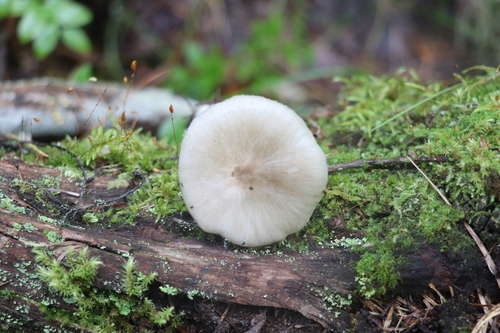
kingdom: Fungi
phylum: Basidiomycota
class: Agaricomycetes
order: Agaricales
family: Tricholomataceae
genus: Megacollybia
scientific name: Megacollybia platyphylla
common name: Whitelaced shank
